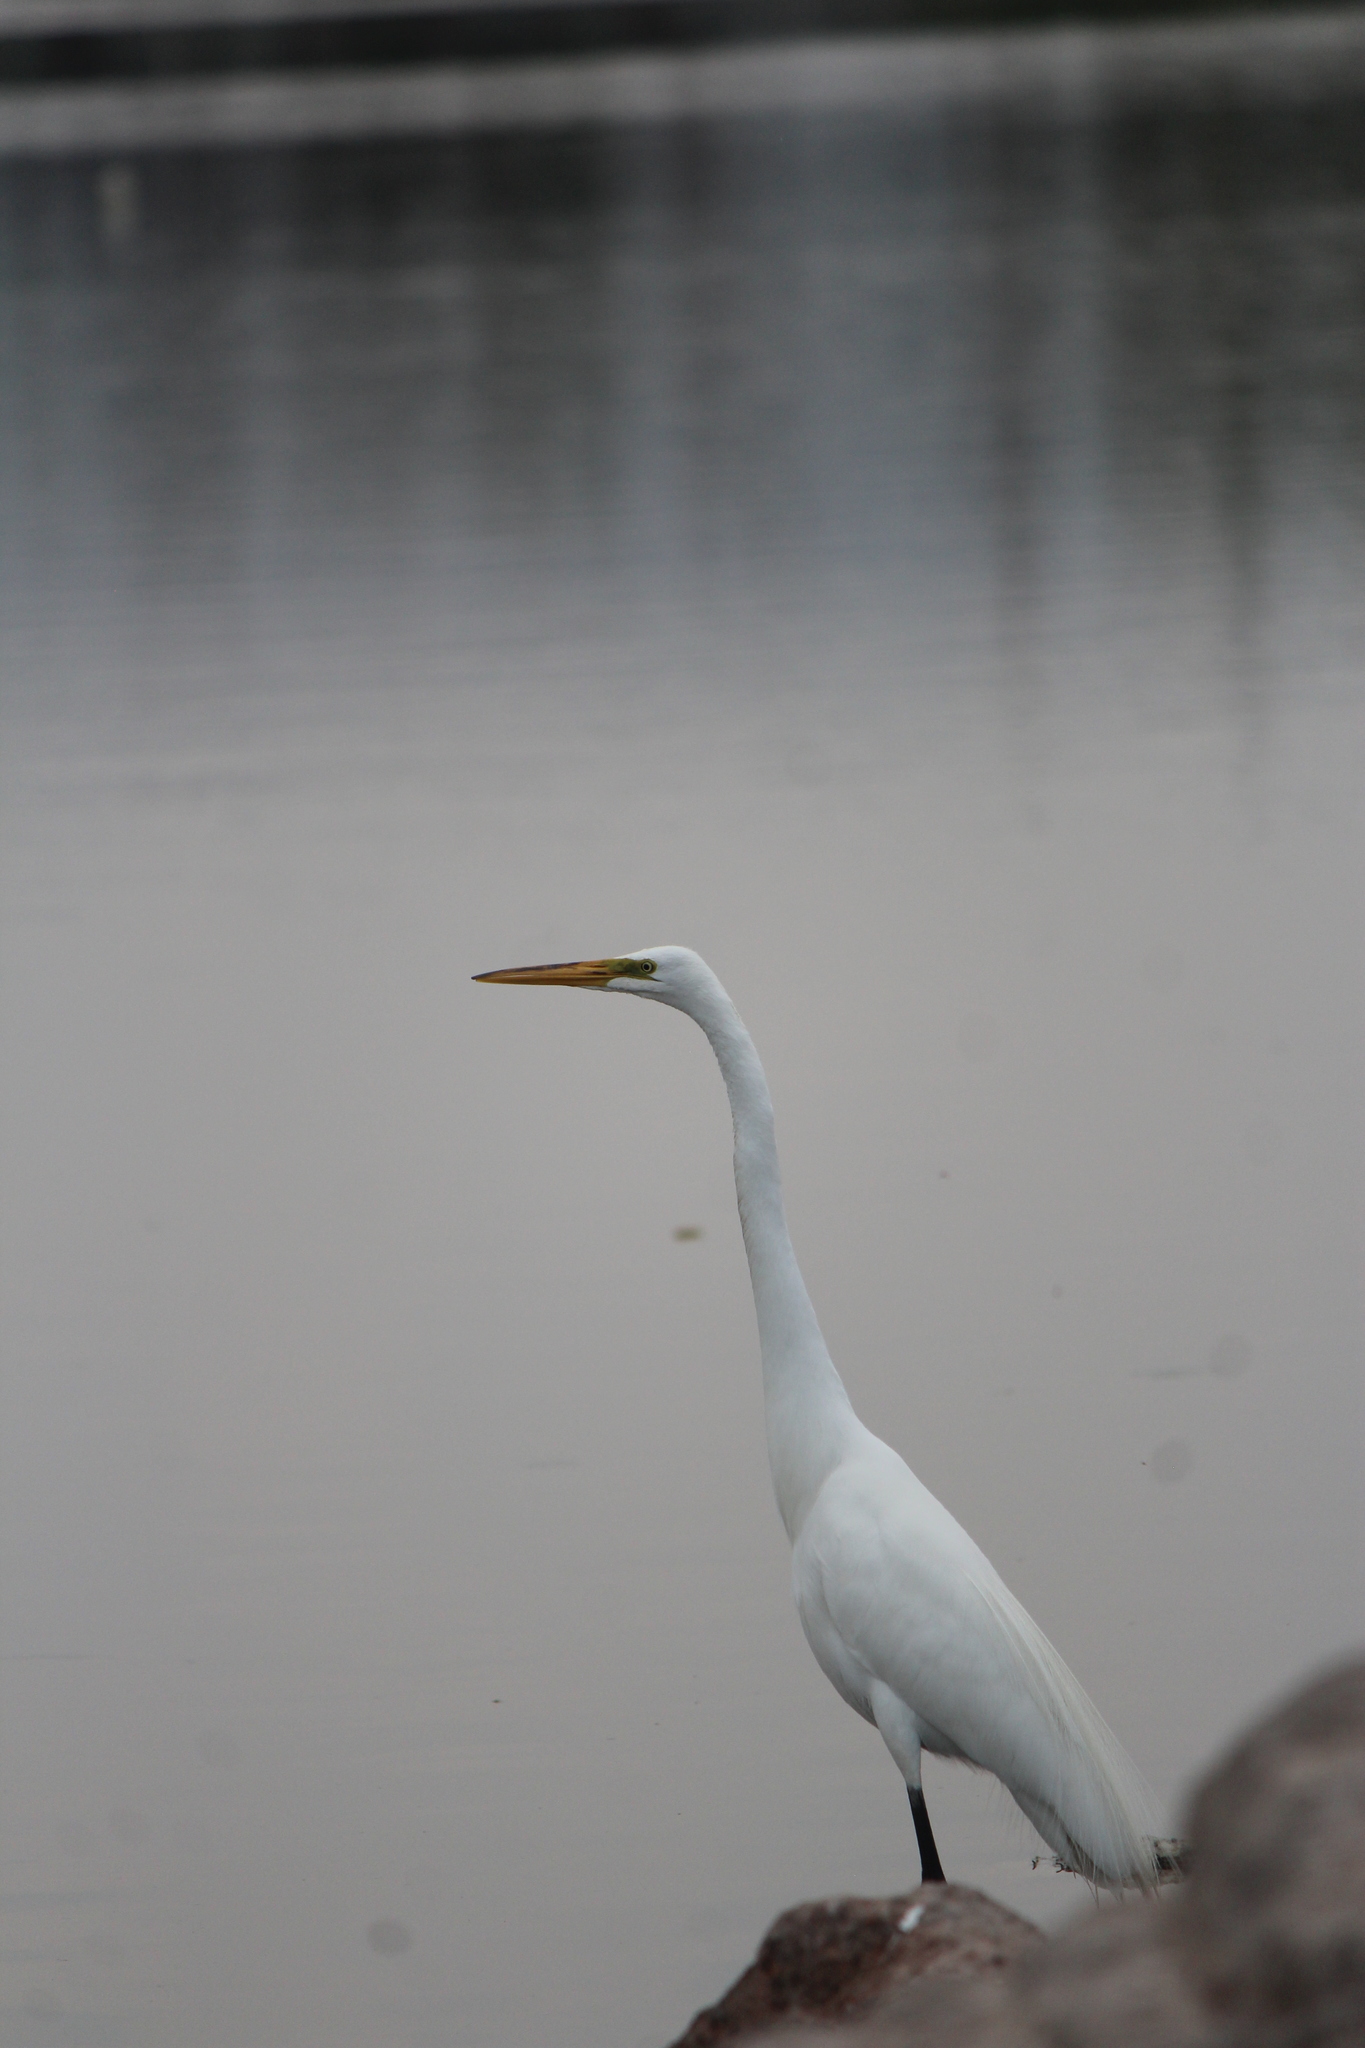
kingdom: Animalia
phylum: Chordata
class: Aves
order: Pelecaniformes
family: Ardeidae
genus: Ardea
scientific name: Ardea alba
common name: Great egret
